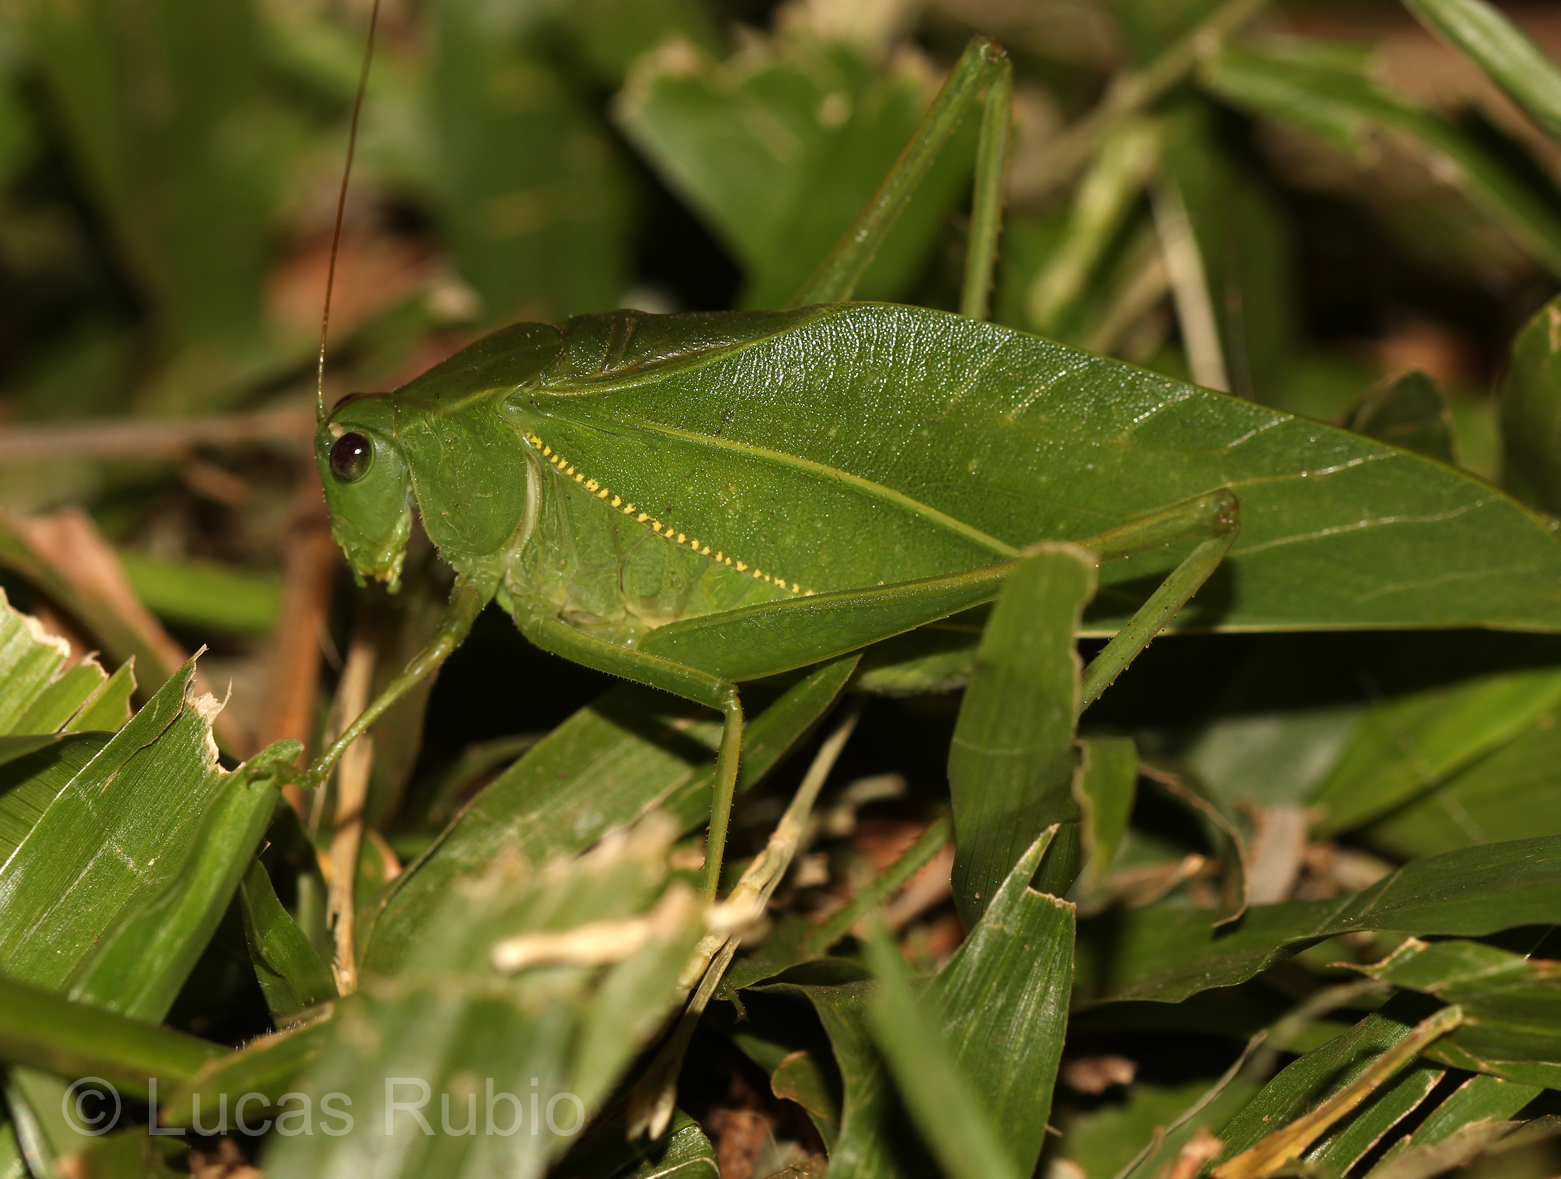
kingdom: Animalia
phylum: Arthropoda
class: Insecta
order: Orthoptera
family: Tettigoniidae
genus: Microcentrum
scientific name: Microcentrum marginatum
